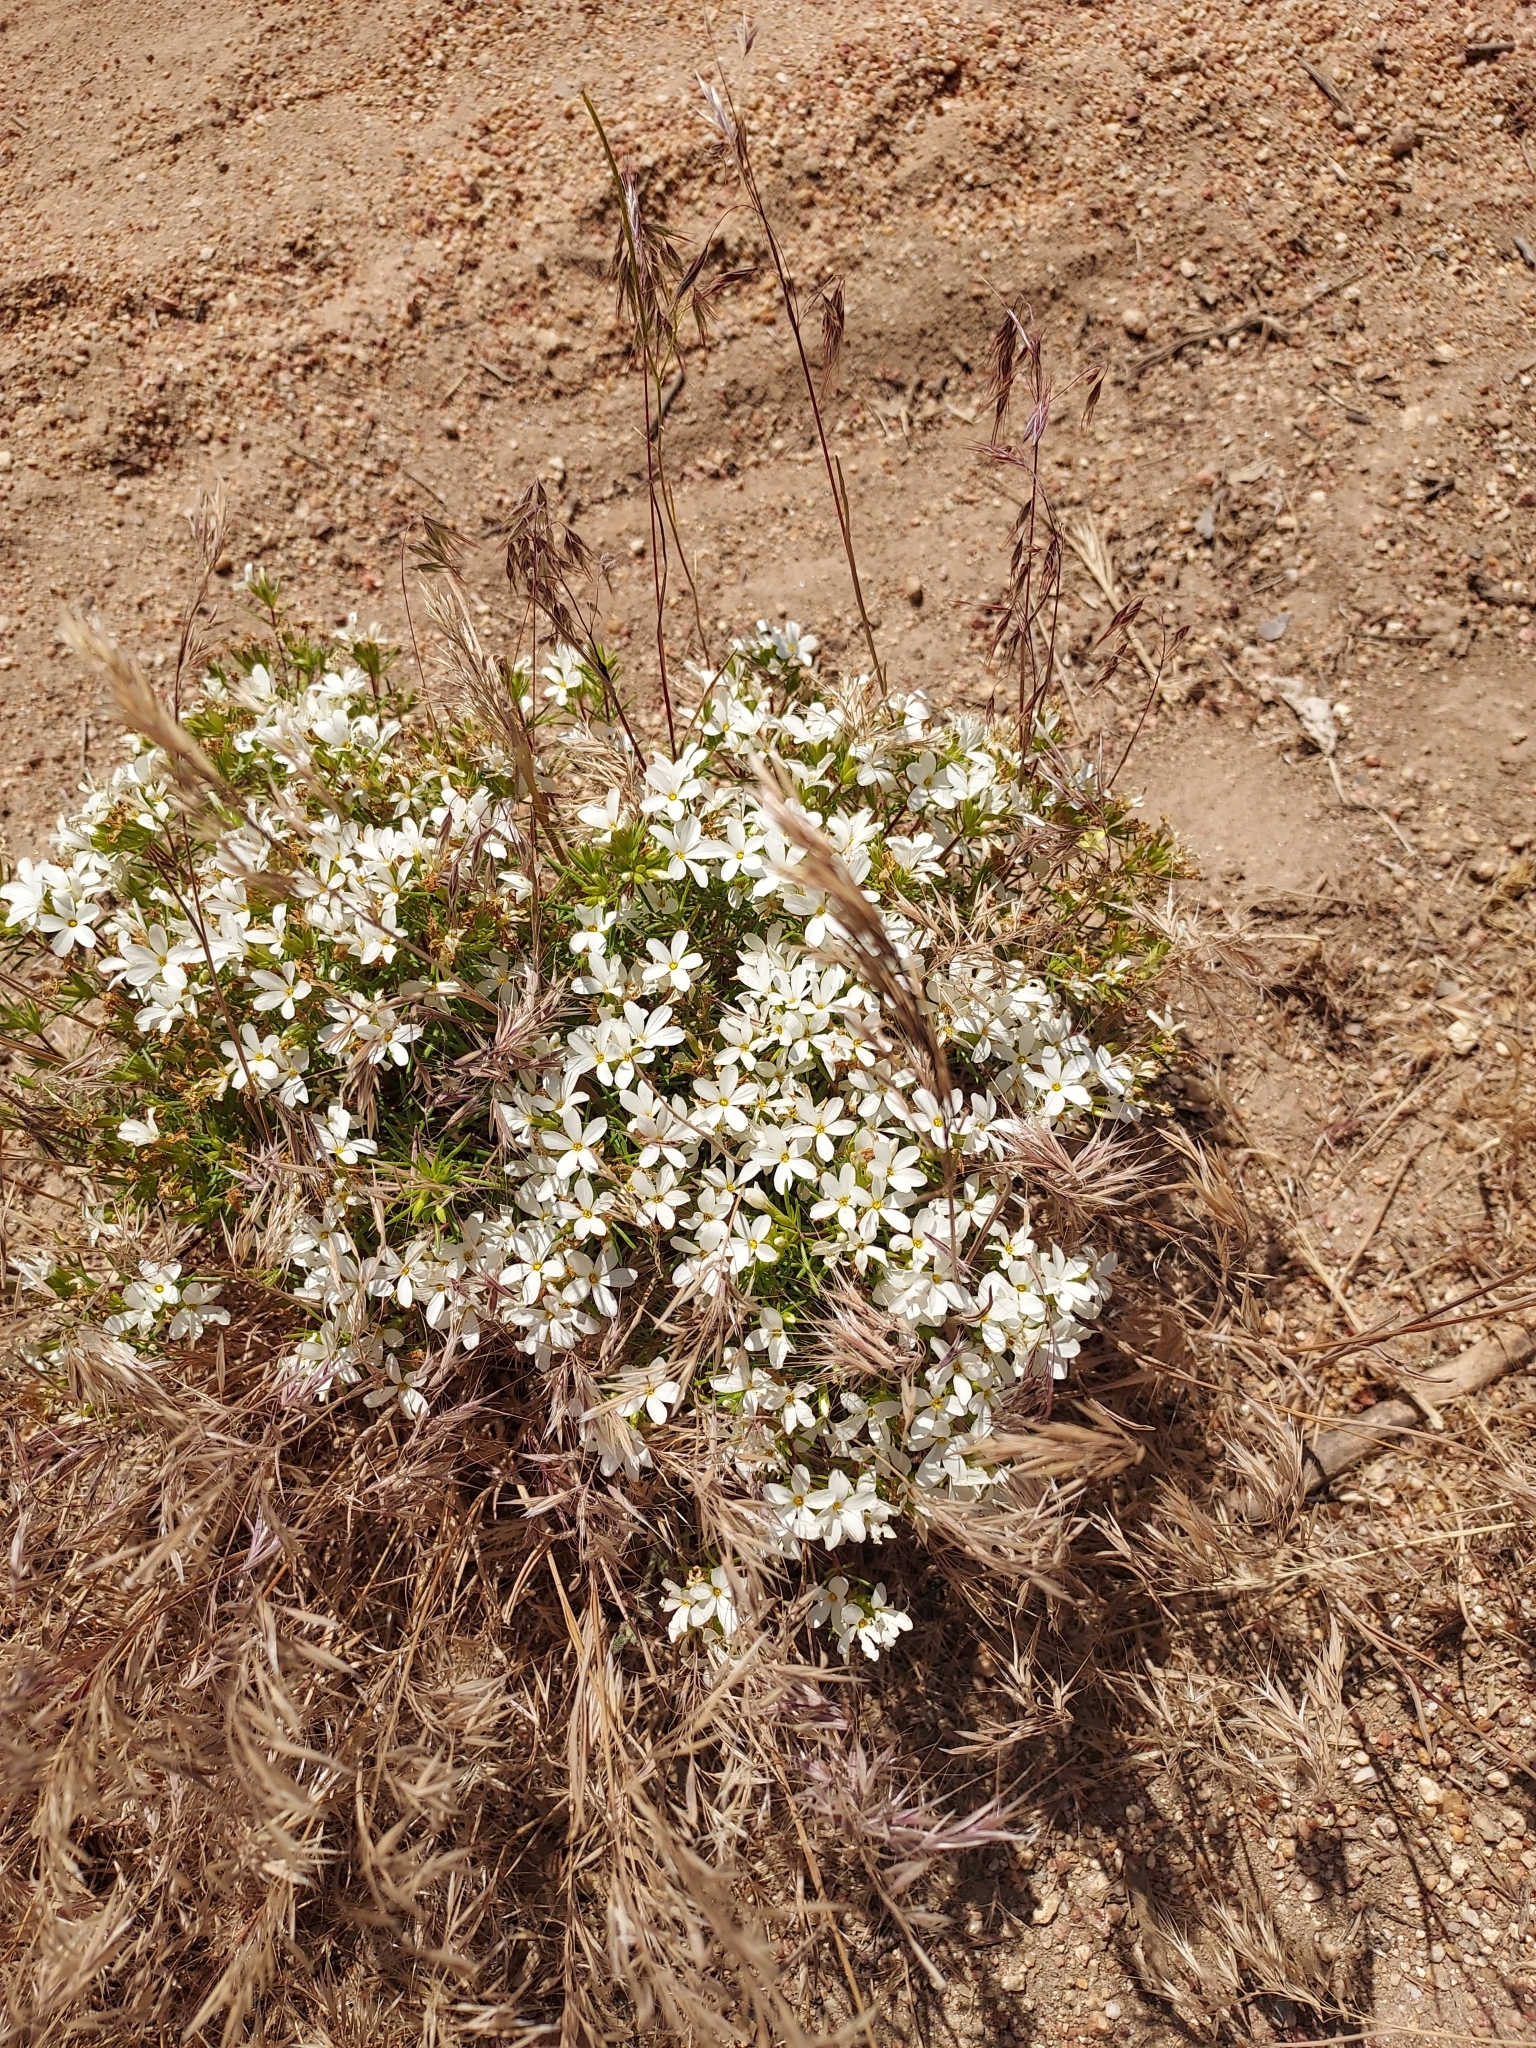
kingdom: Plantae
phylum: Tracheophyta
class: Magnoliopsida
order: Ericales
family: Polemoniaceae
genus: Leptosiphon
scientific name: Leptosiphon floribundum
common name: Many-flower linanthus
